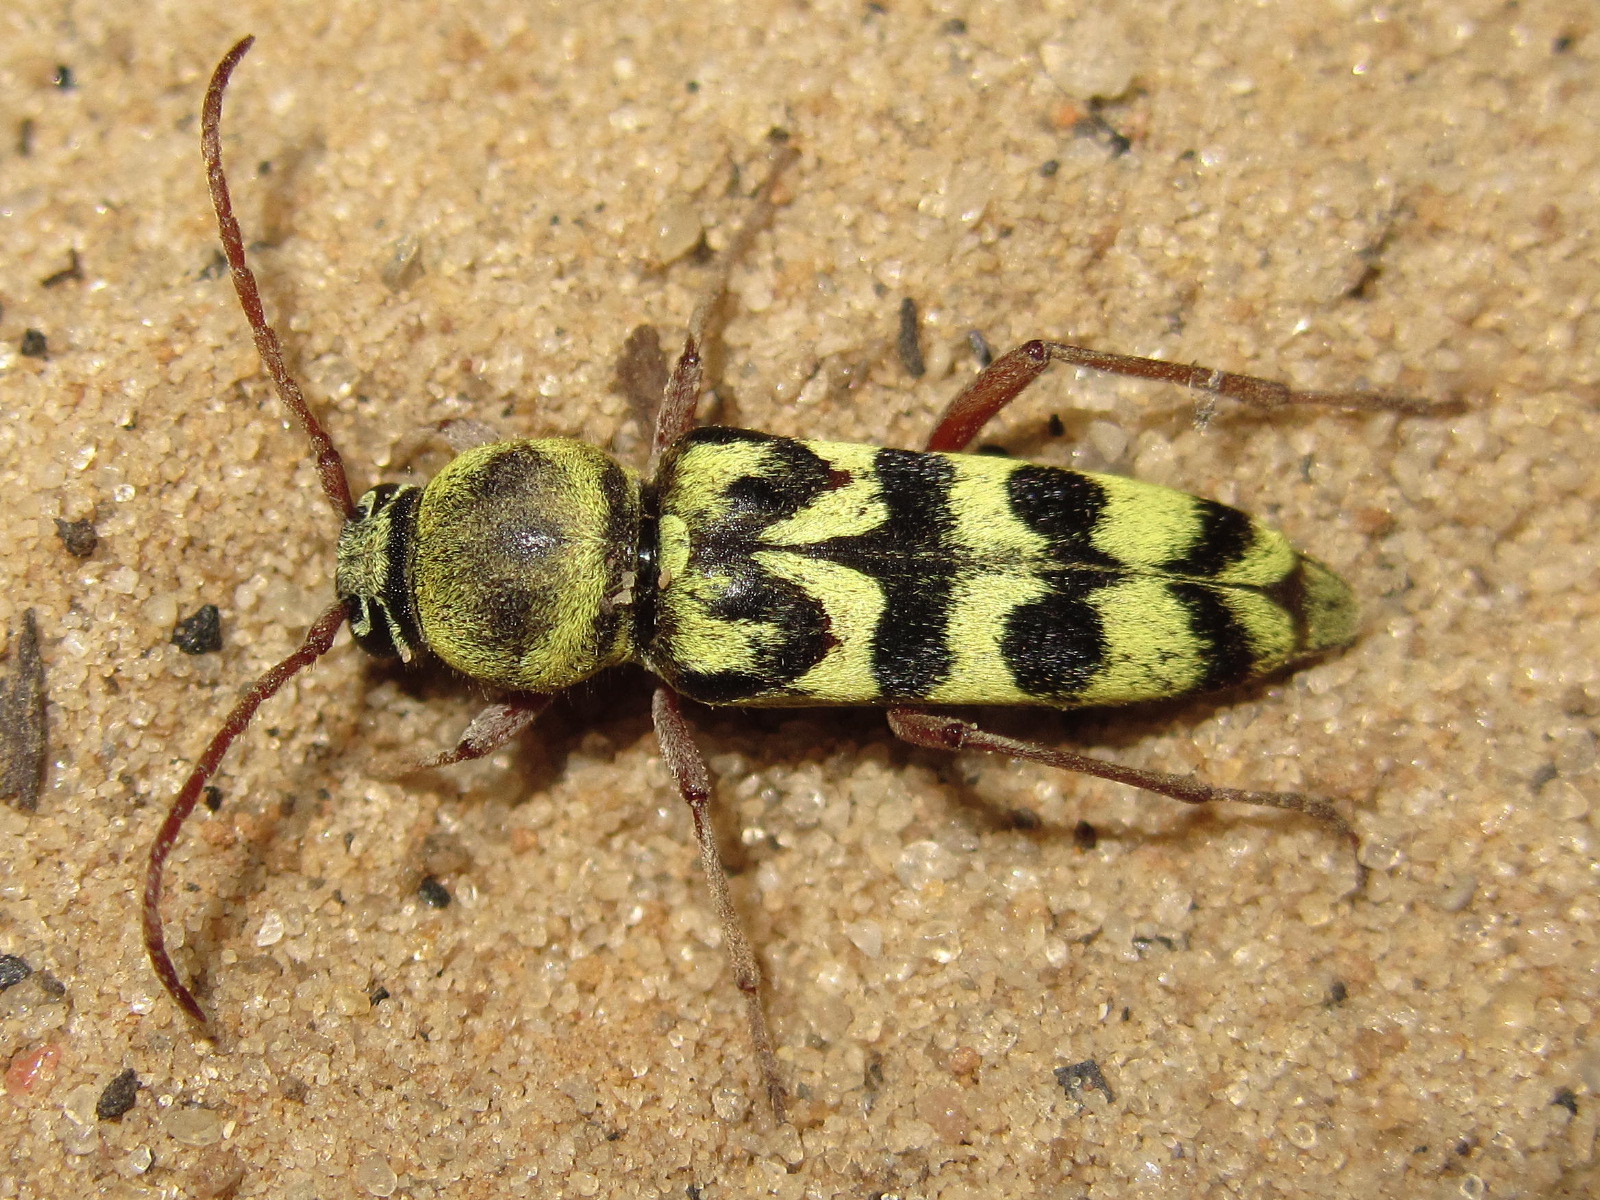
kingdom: Animalia
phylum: Arthropoda
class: Insecta
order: Coleoptera
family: Cerambycidae
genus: Plagionotus
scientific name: Plagionotus floralis
